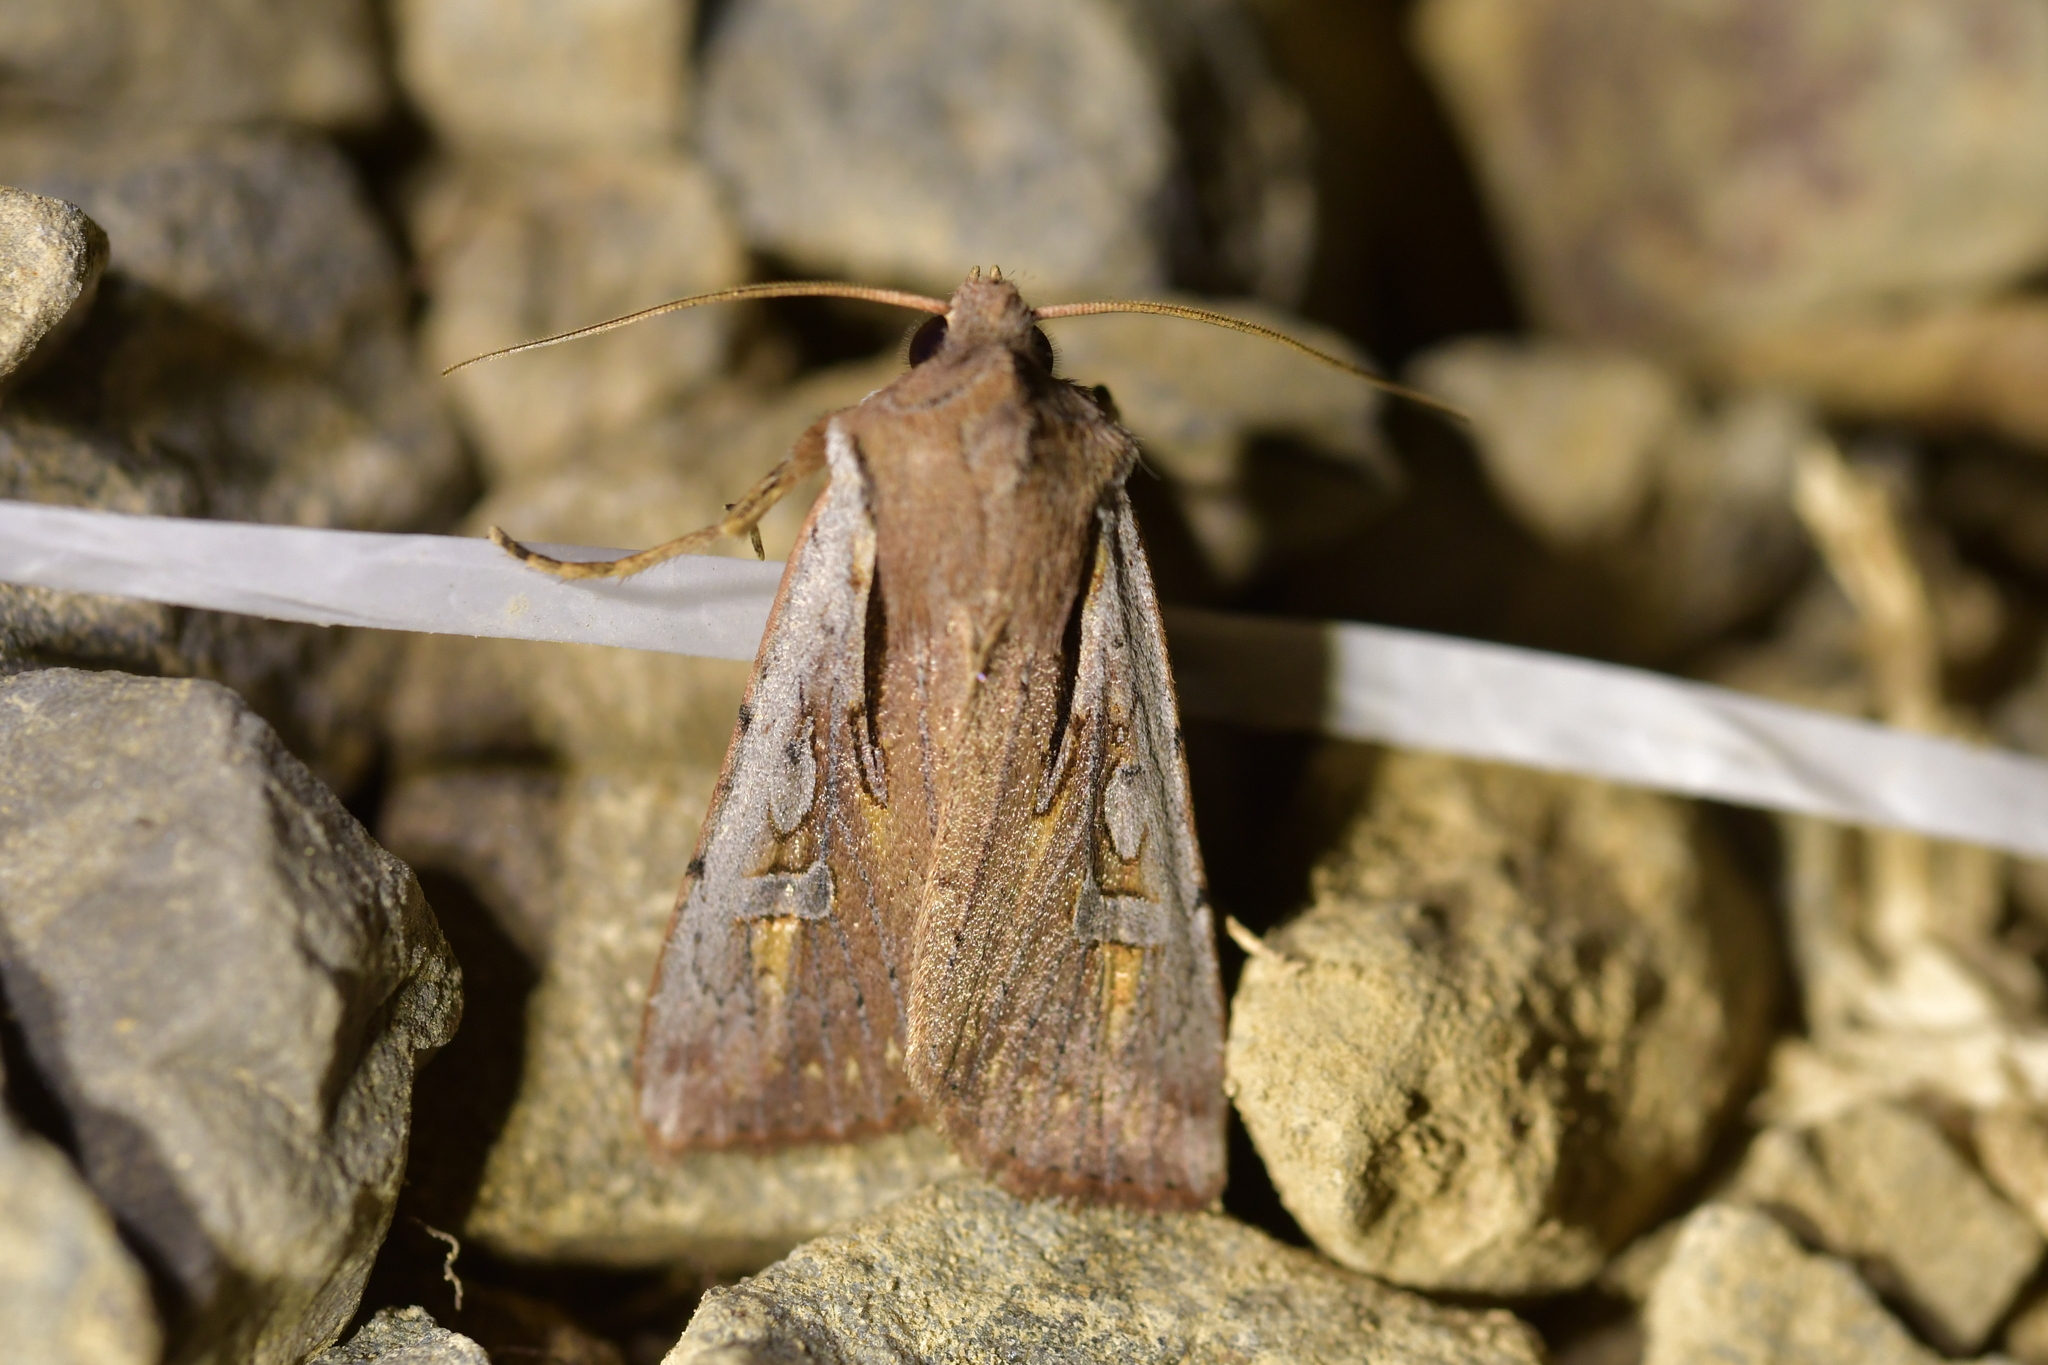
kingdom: Animalia
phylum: Arthropoda
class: Insecta
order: Lepidoptera
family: Noctuidae
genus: Ichneutica
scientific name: Ichneutica atristriga
